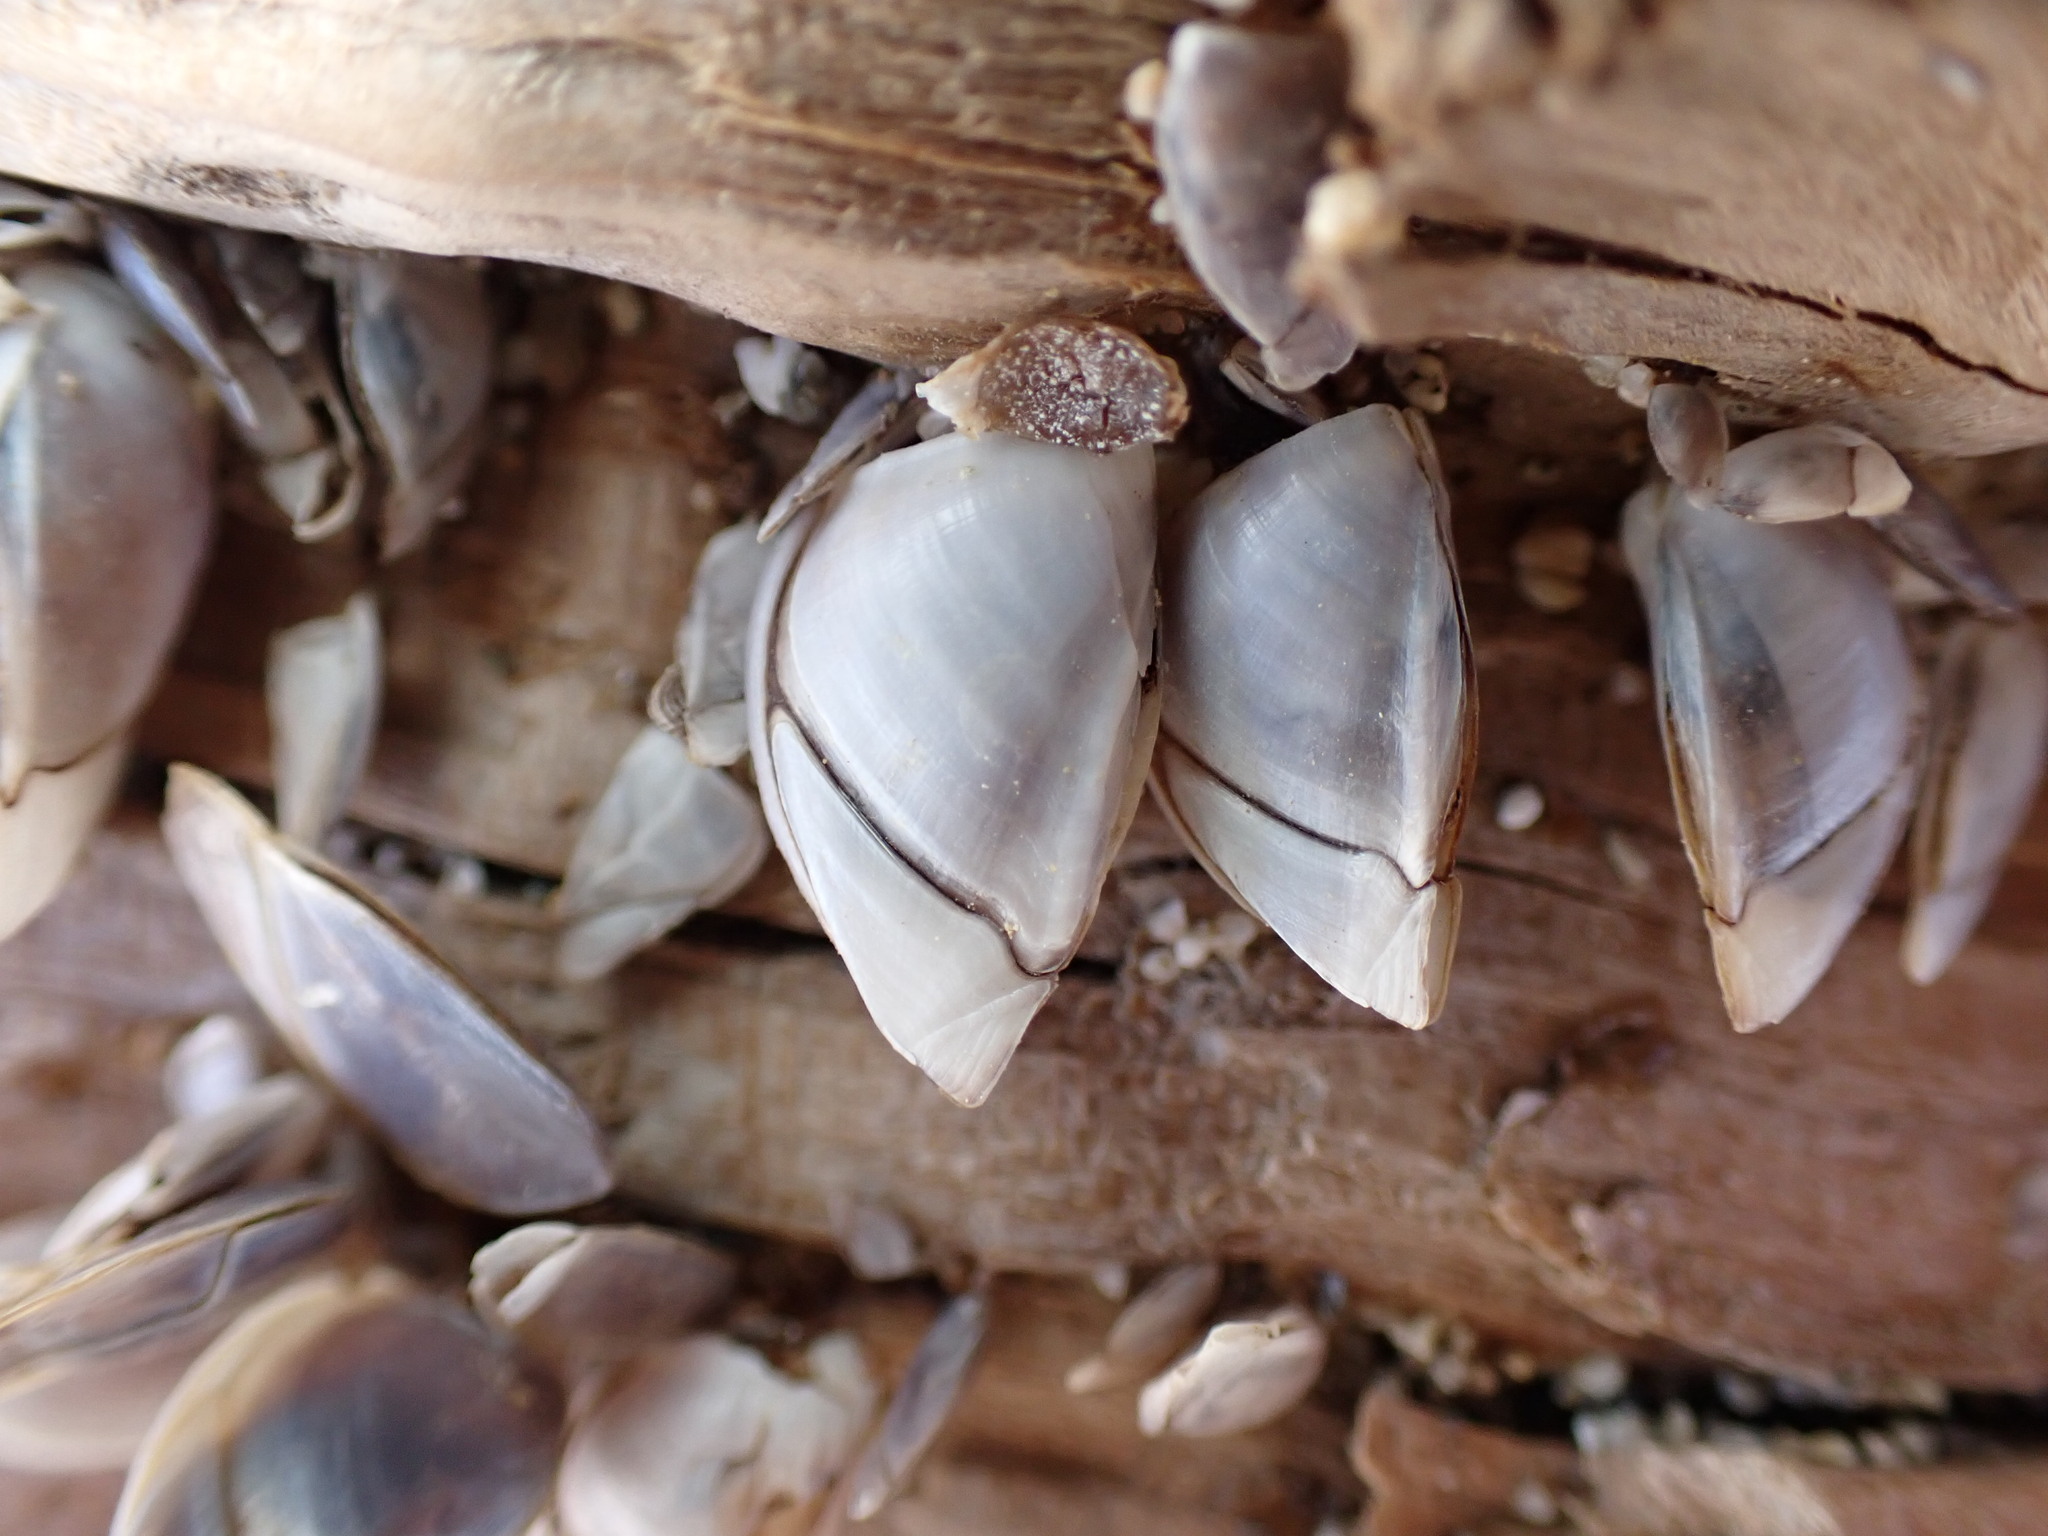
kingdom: Animalia
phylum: Arthropoda
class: Maxillopoda
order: Pedunculata
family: Lepadidae
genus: Lepas
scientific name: Lepas pacifica
